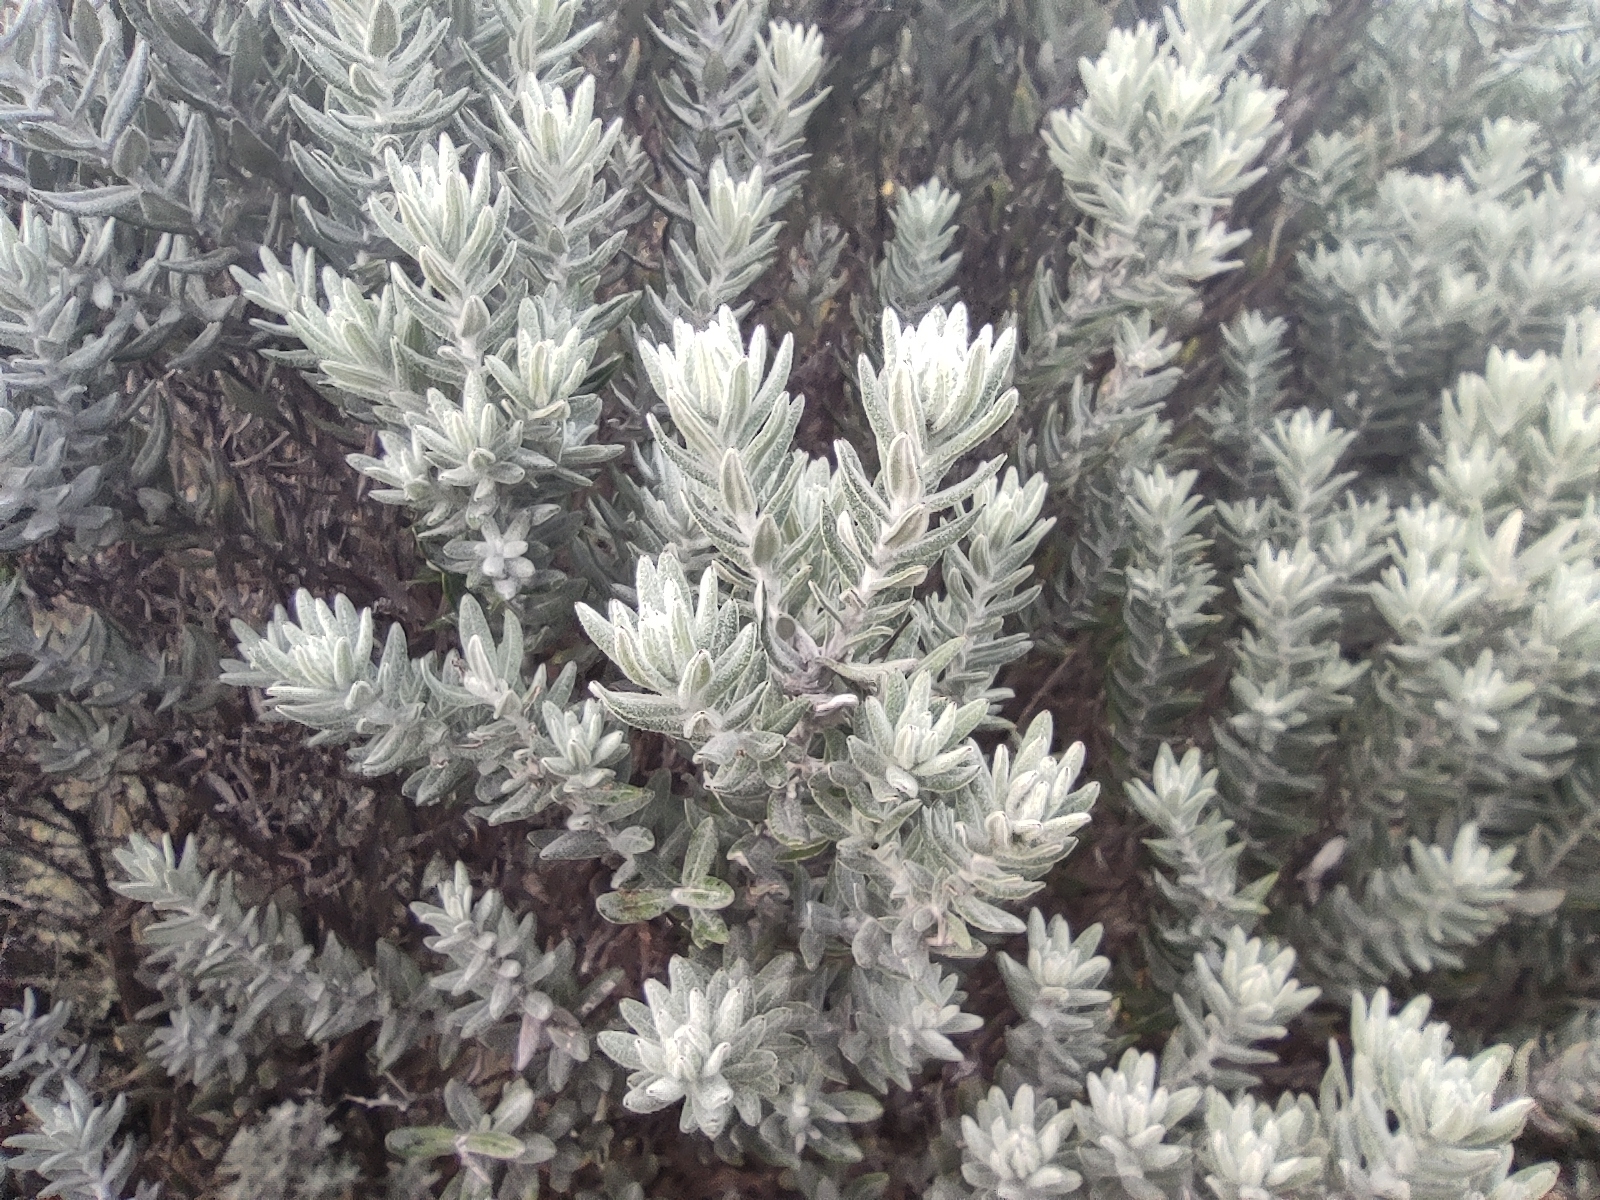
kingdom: Plantae
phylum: Tracheophyta
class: Magnoliopsida
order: Asterales
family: Asteraceae
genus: Hubertia
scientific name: Hubertia tomentosa
